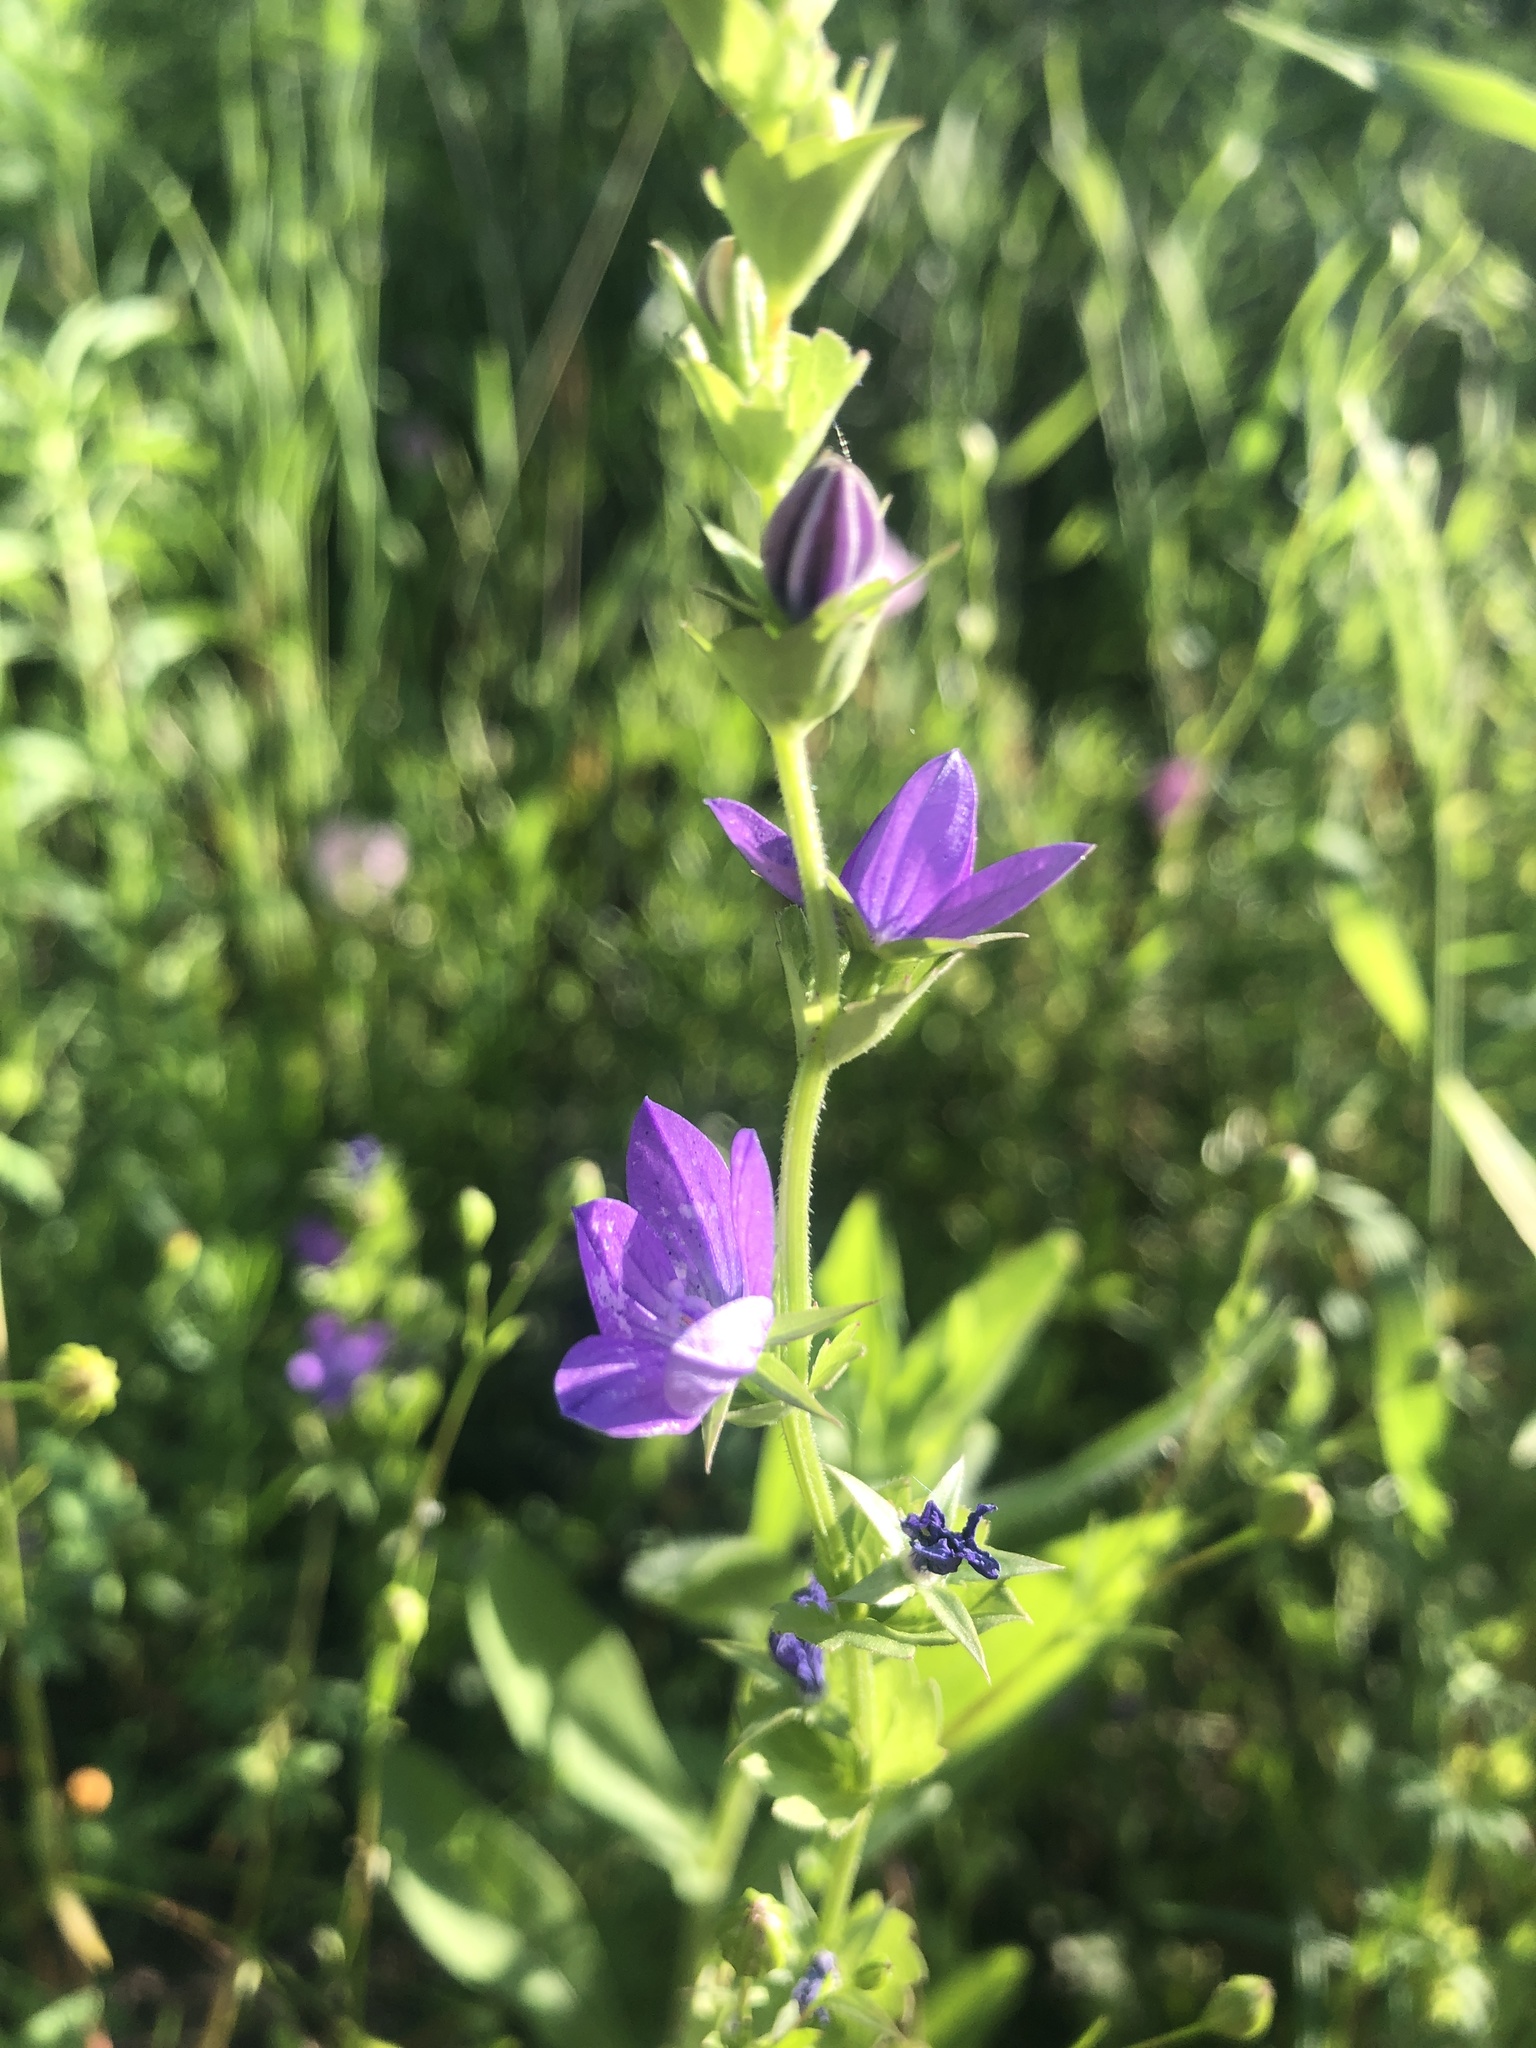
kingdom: Plantae
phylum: Tracheophyta
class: Magnoliopsida
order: Asterales
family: Campanulaceae
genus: Triodanis
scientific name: Triodanis perfoliata
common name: Clasping venus' looking-glass
